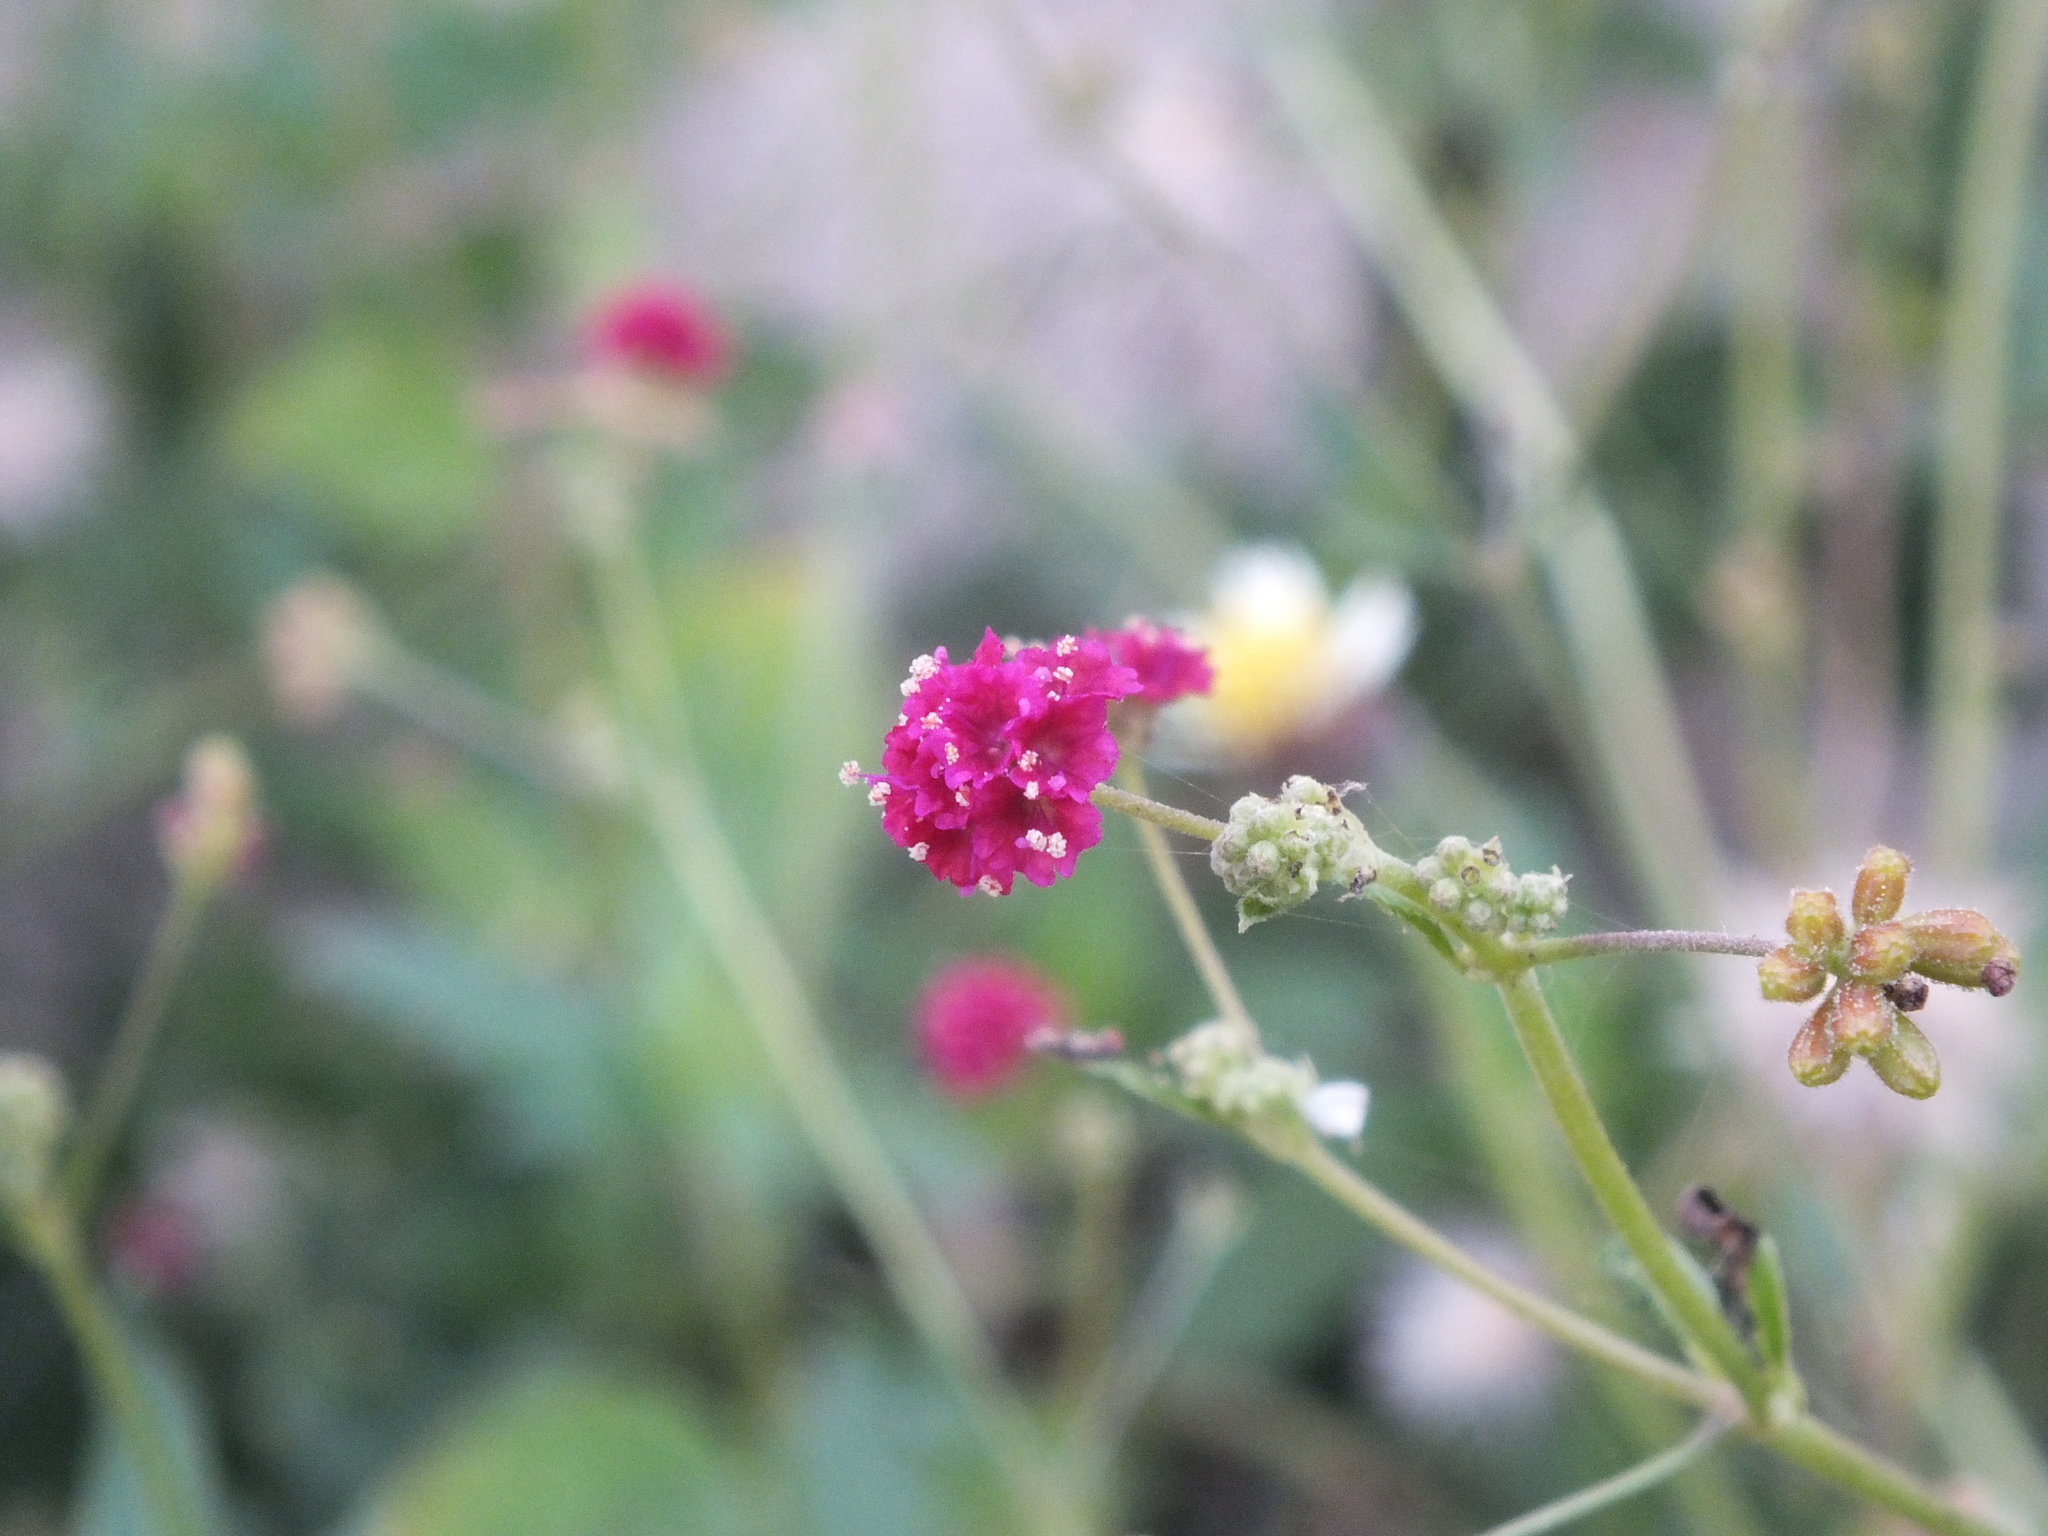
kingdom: Plantae
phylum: Tracheophyta
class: Magnoliopsida
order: Caryophyllales
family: Nyctaginaceae
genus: Boerhavia
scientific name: Boerhavia coccinea
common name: Scarlet spiderling
